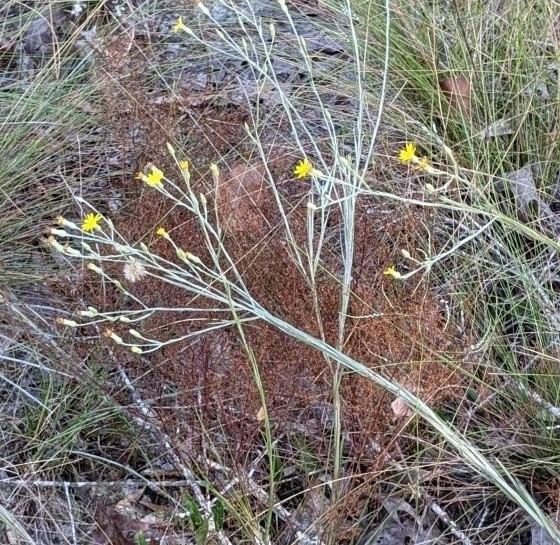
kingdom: Plantae
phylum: Tracheophyta
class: Magnoliopsida
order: Asterales
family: Asteraceae
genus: Pityopsis
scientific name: Pityopsis graminifolia
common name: Grass-leaf golden-aster
